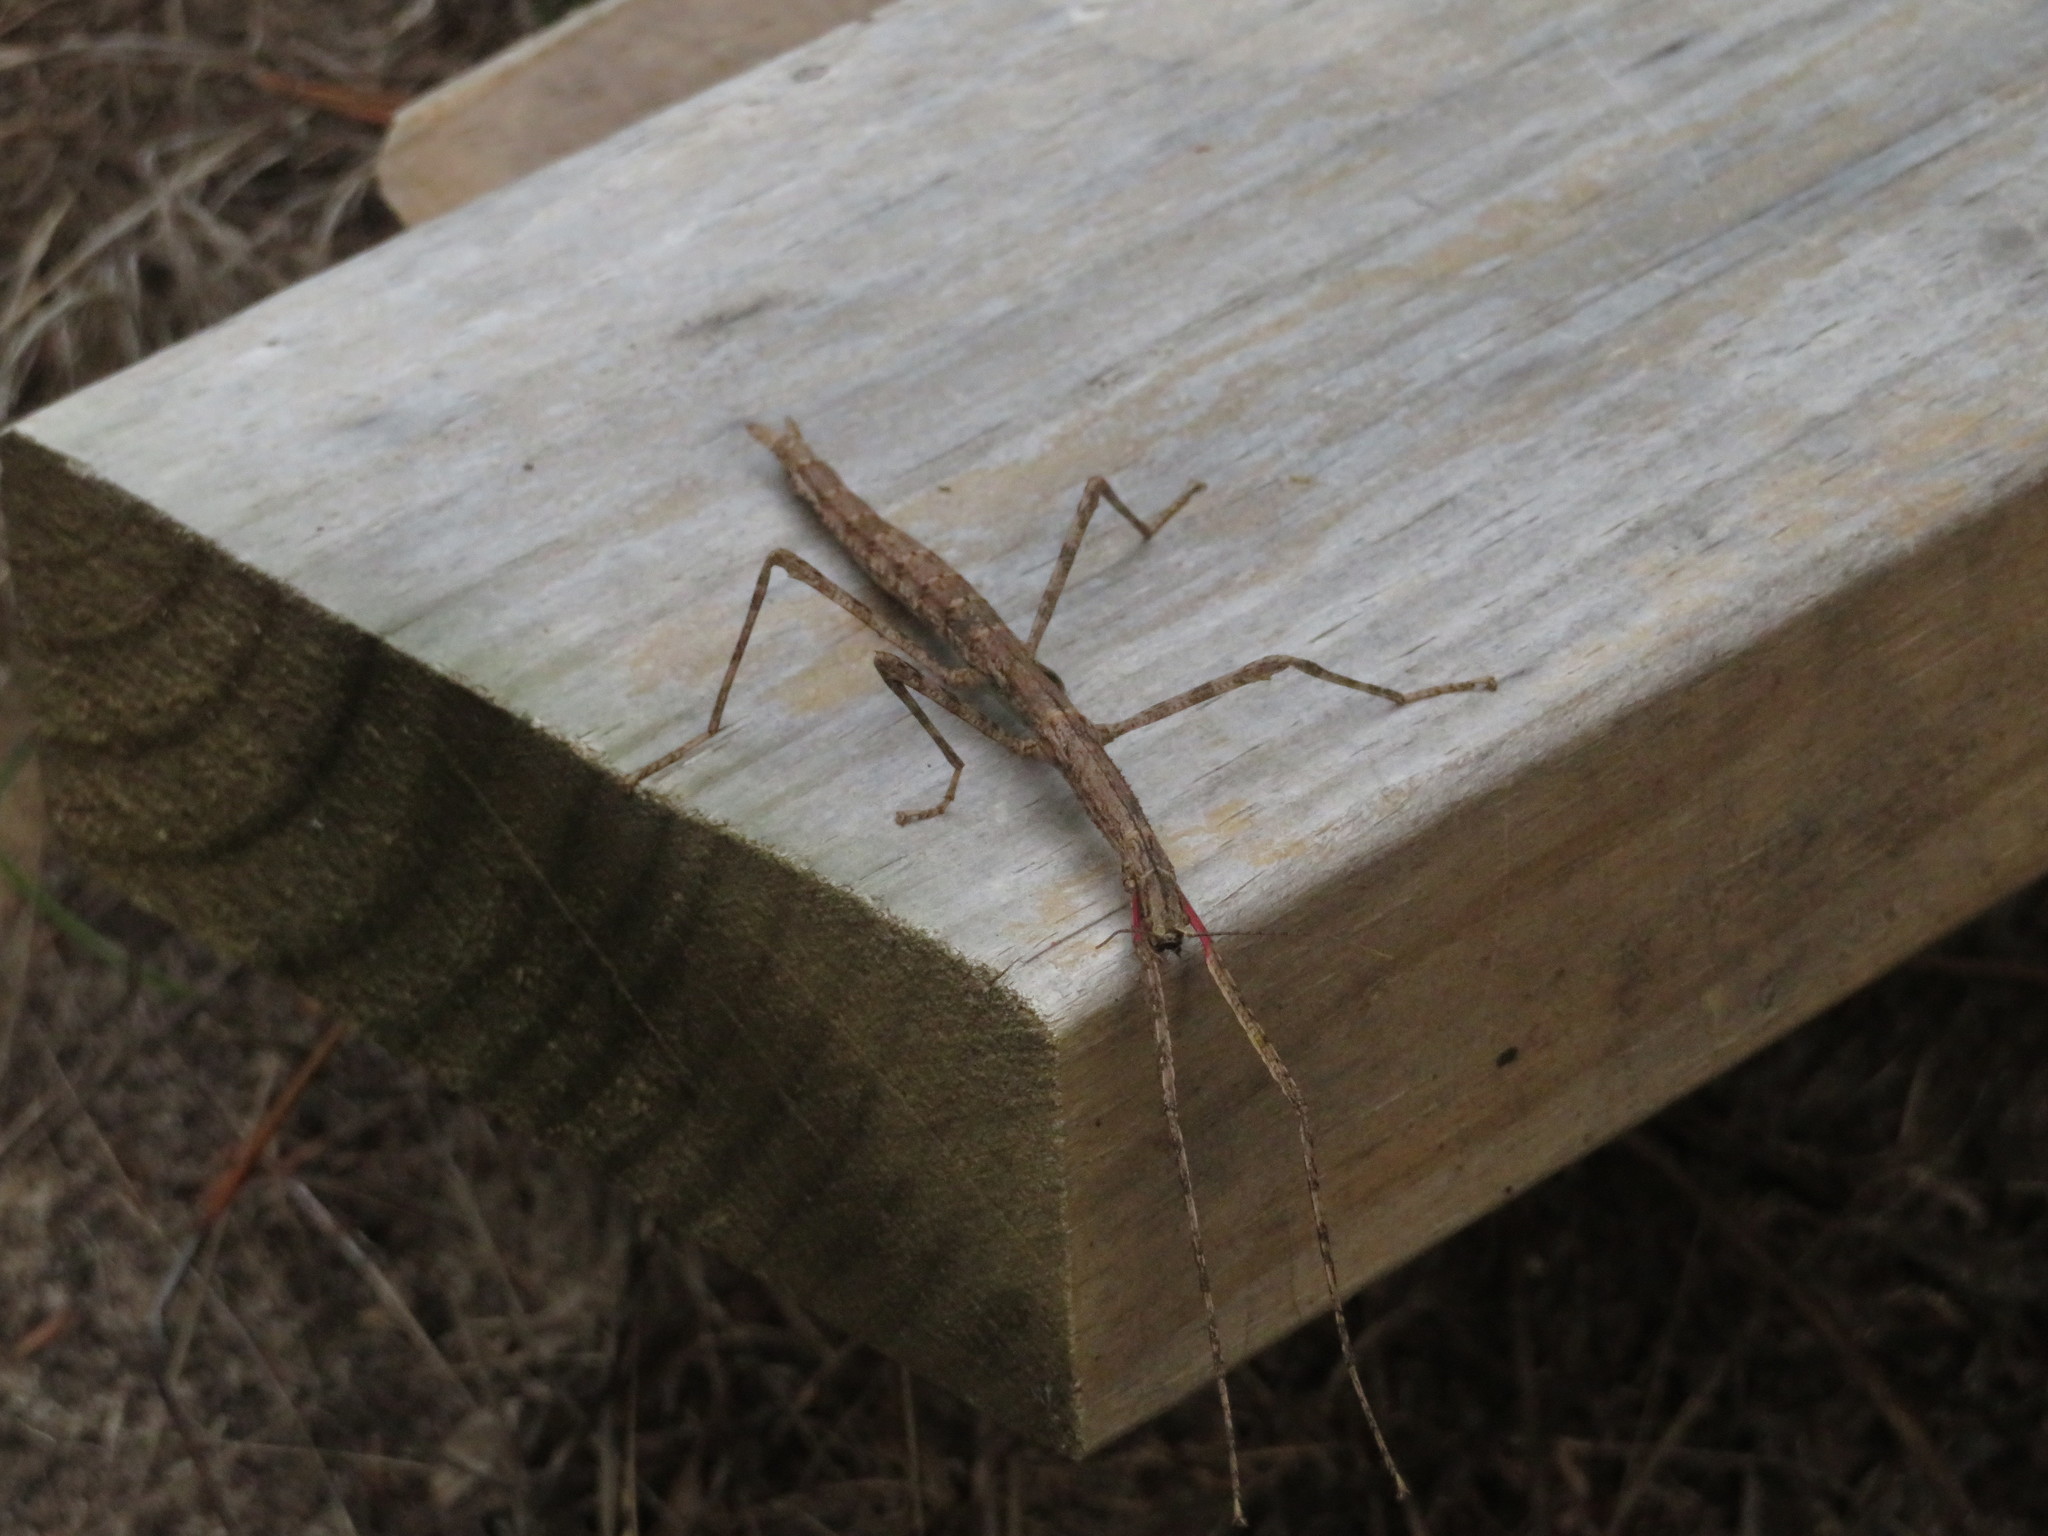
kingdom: Animalia
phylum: Arthropoda
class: Insecta
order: Phasmida
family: Phasmatidae
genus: Clitarchus
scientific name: Clitarchus hookeri
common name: Smooth stick insect
